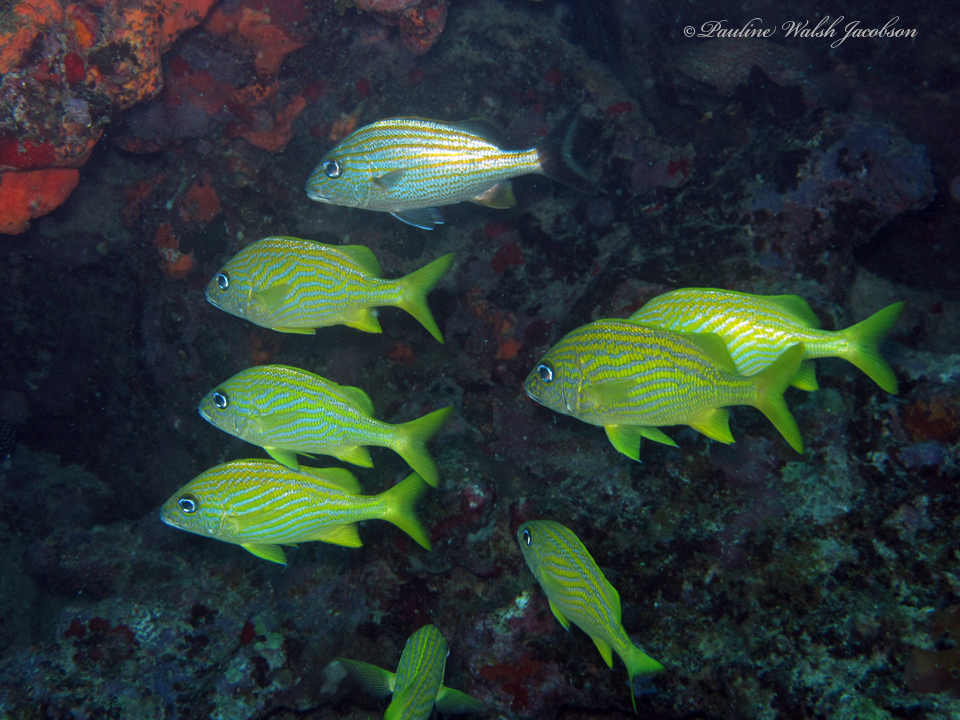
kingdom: Animalia
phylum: Chordata
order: Perciformes
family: Haemulidae
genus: Haemulon
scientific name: Haemulon flavolineatum
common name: French grunt
